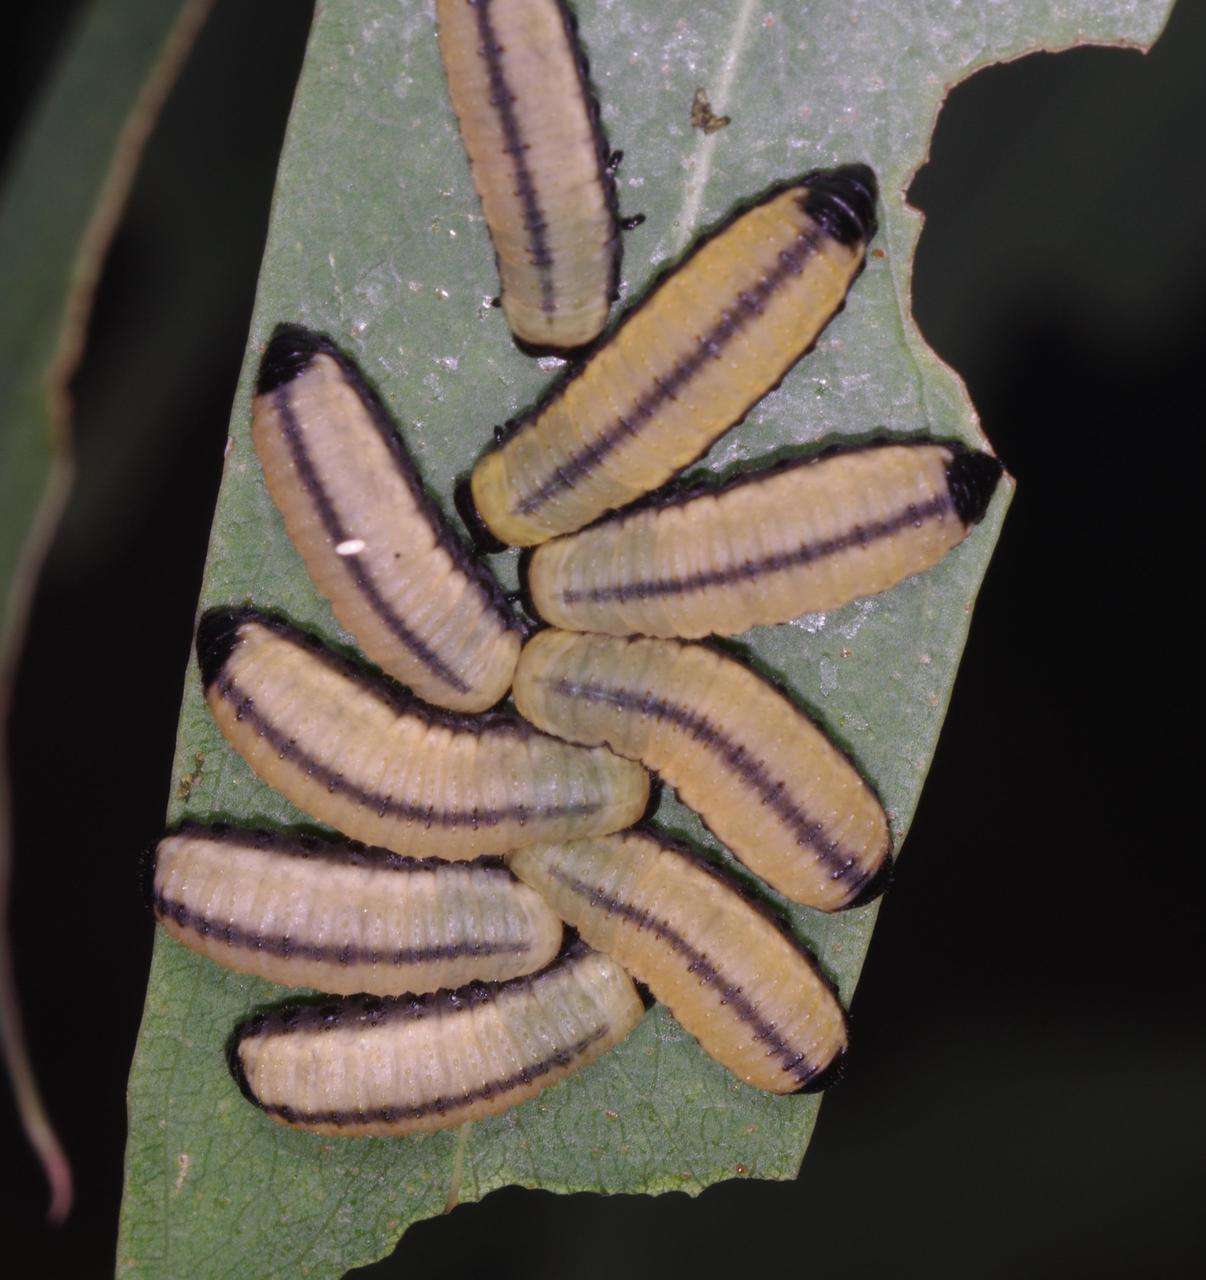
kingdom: Animalia
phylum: Arthropoda
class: Insecta
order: Coleoptera
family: Chrysomelidae
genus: Paropsisterna
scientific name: Paropsisterna cloelia
